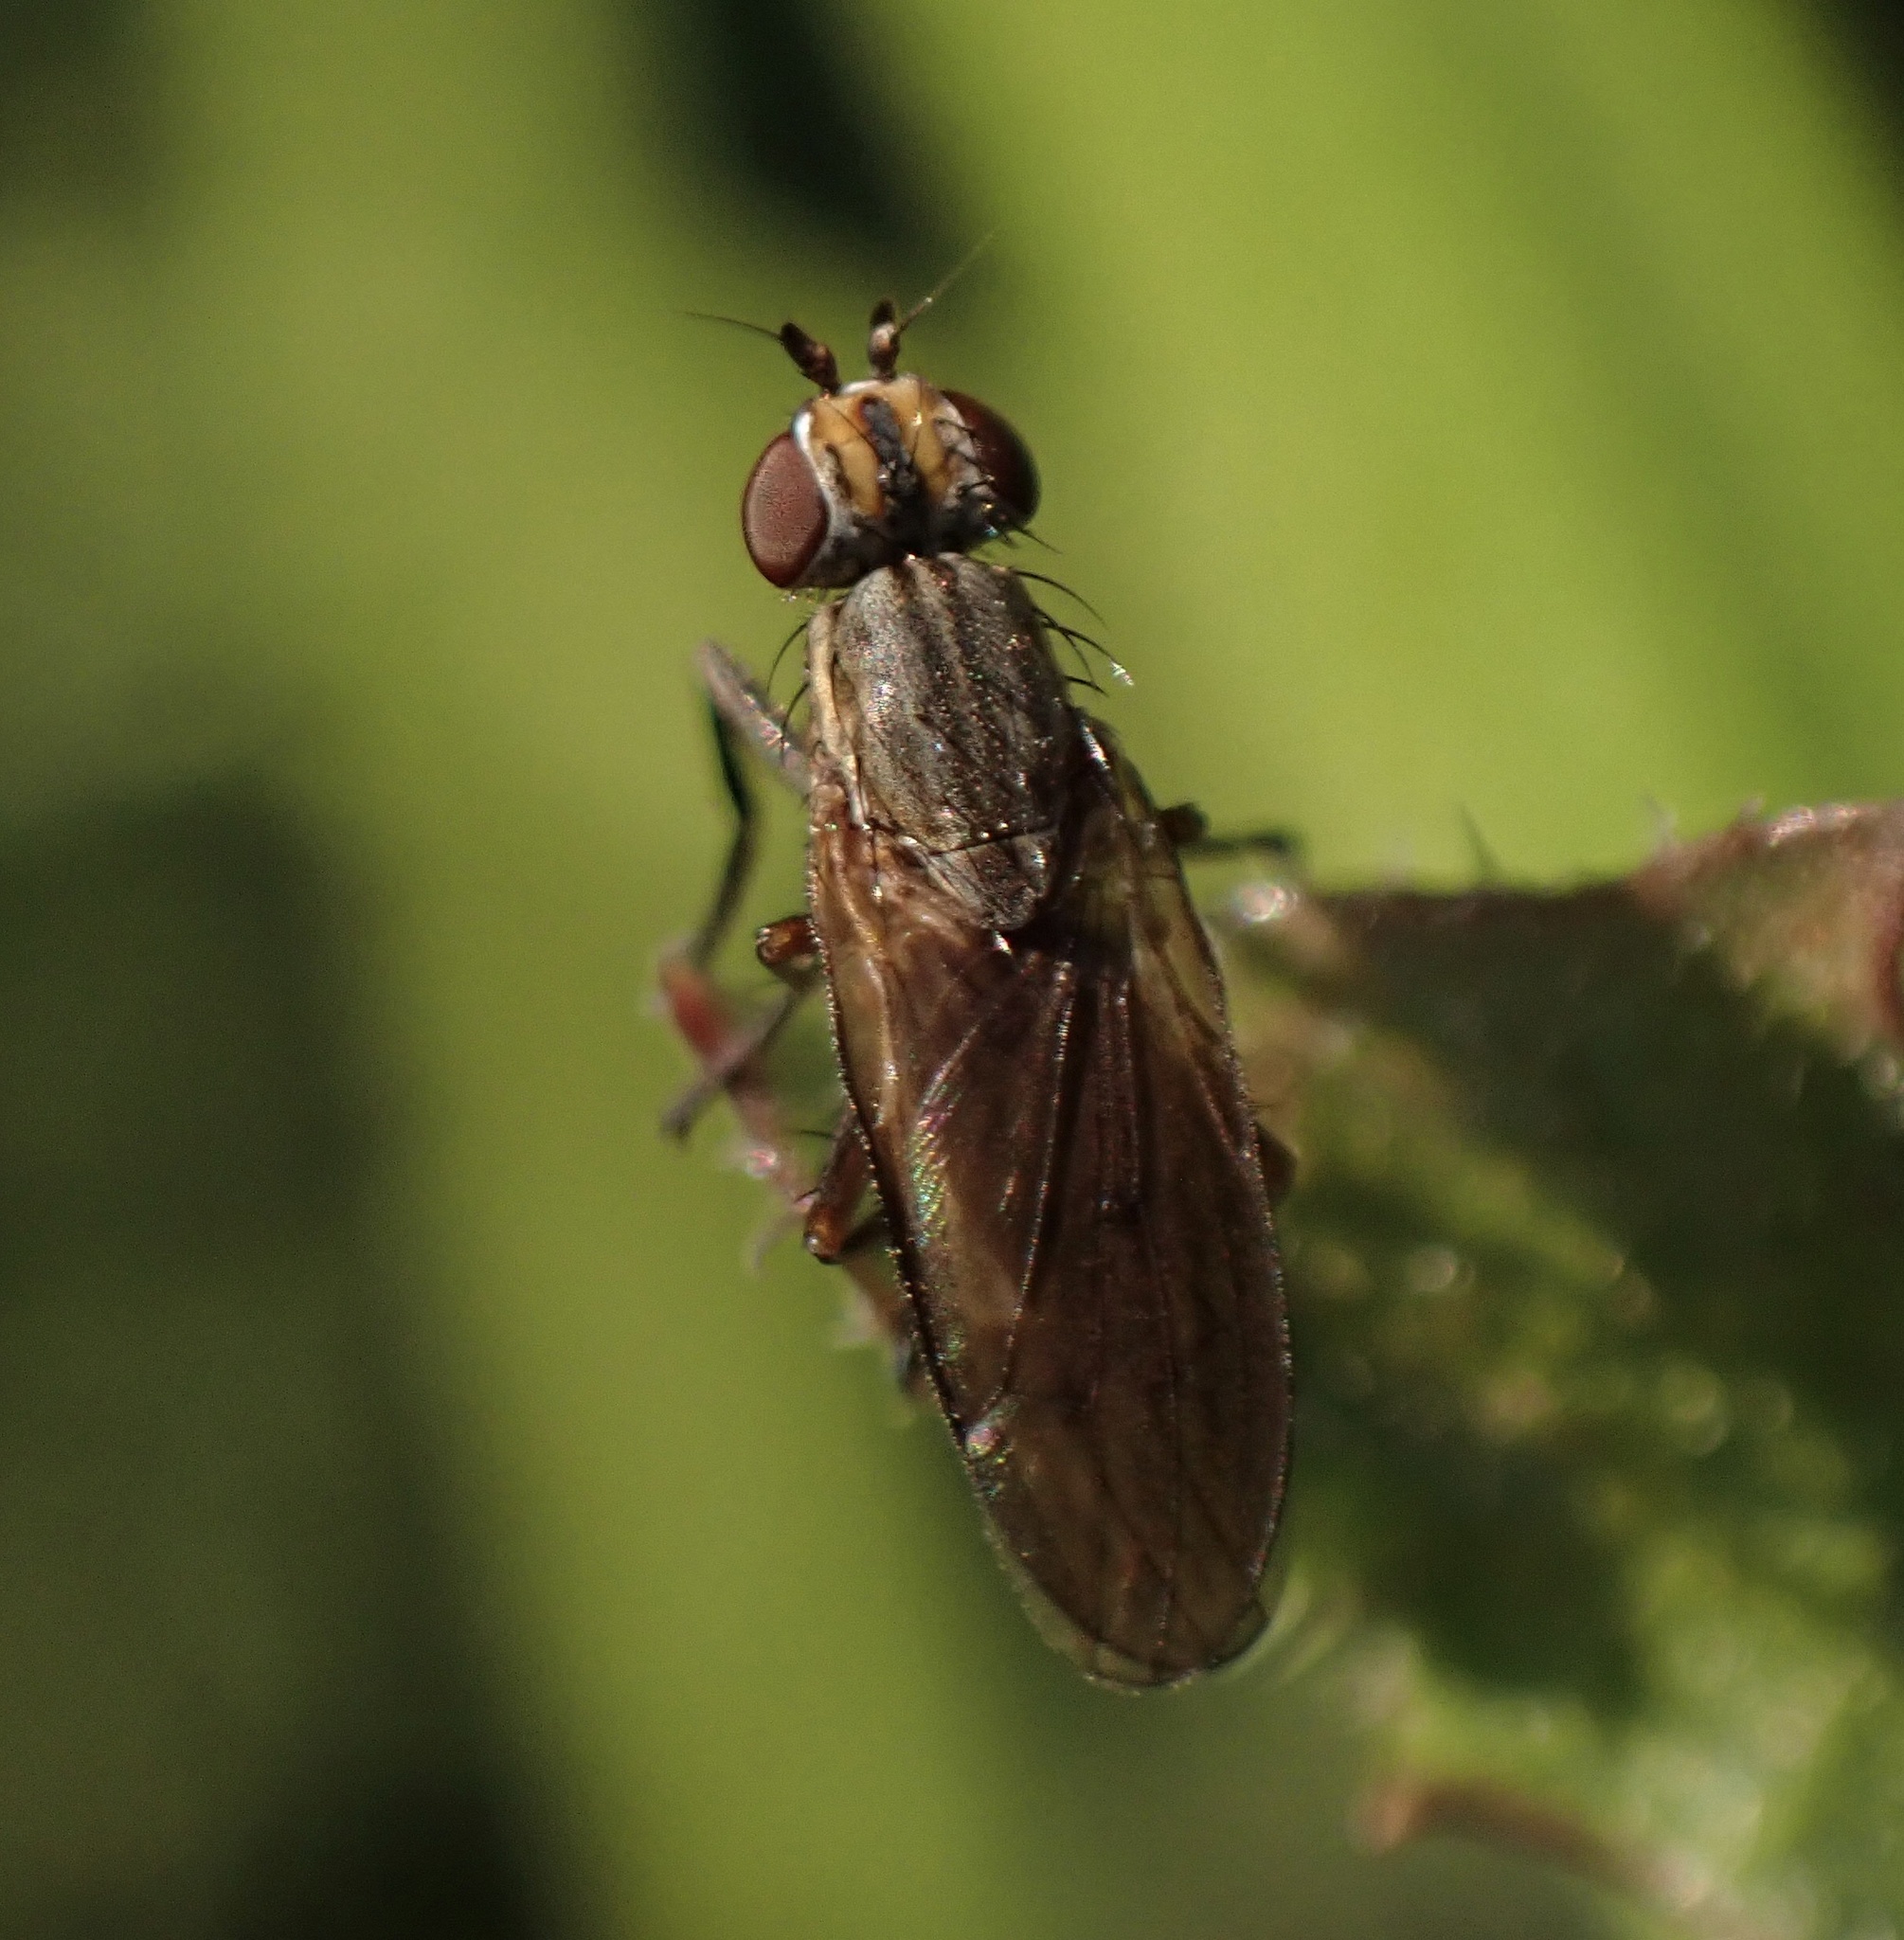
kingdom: Animalia
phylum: Arthropoda
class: Insecta
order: Diptera
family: Sciomyzidae
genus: Pherbellia
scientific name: Pherbellia cinerella
